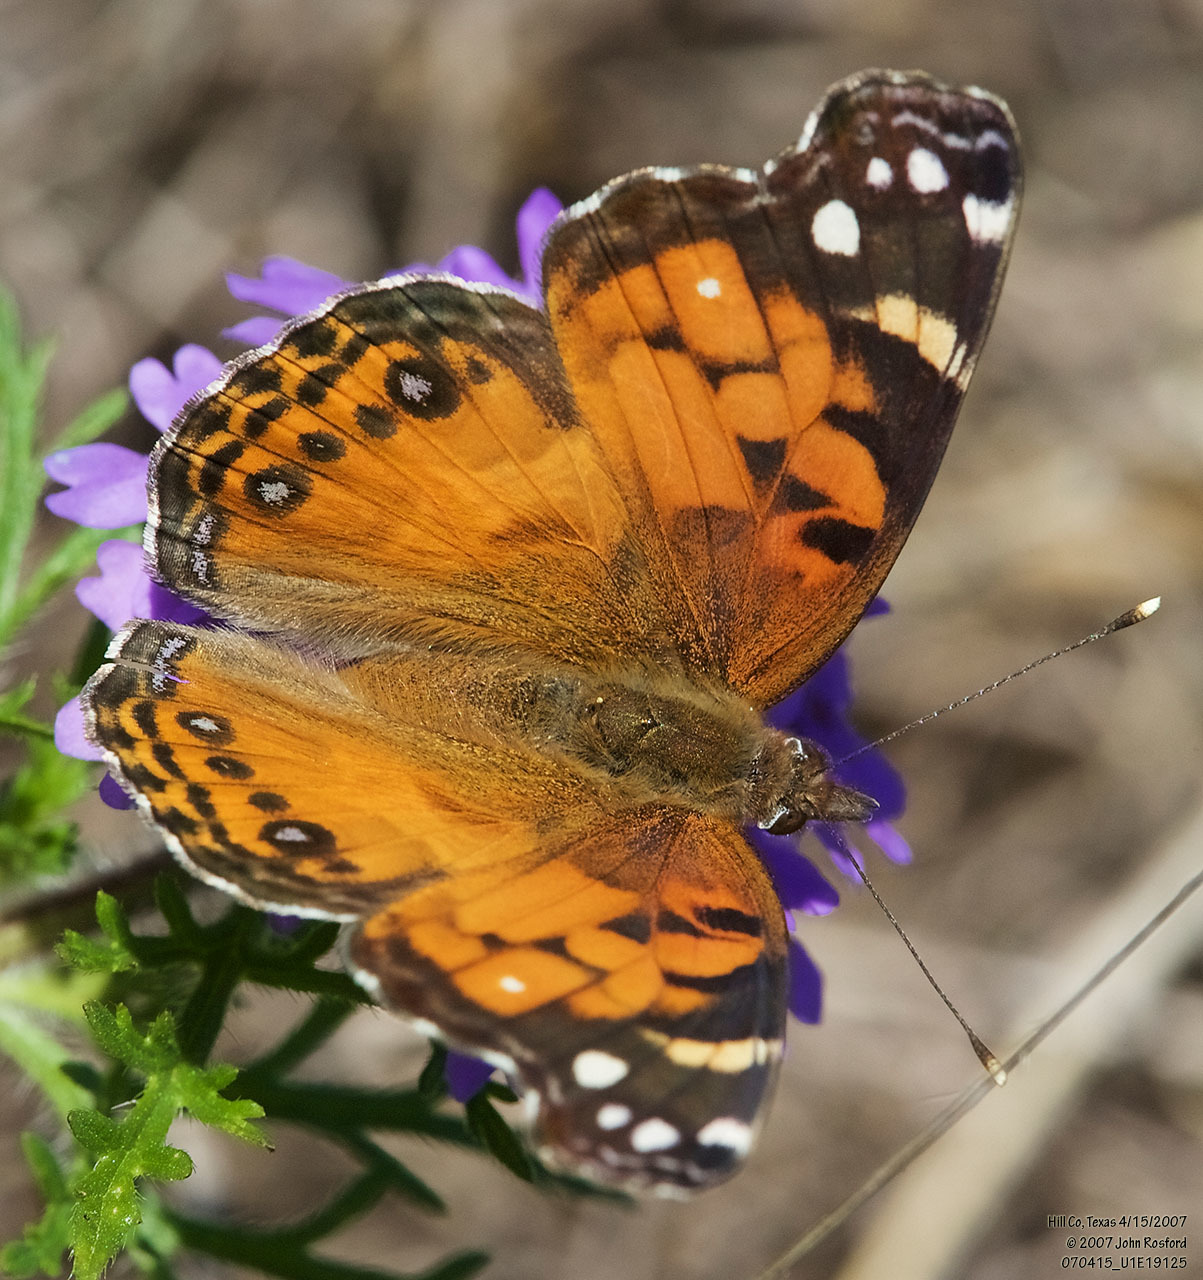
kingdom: Animalia
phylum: Arthropoda
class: Insecta
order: Lepidoptera
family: Nymphalidae
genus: Vanessa
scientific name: Vanessa virginiensis
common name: American lady
